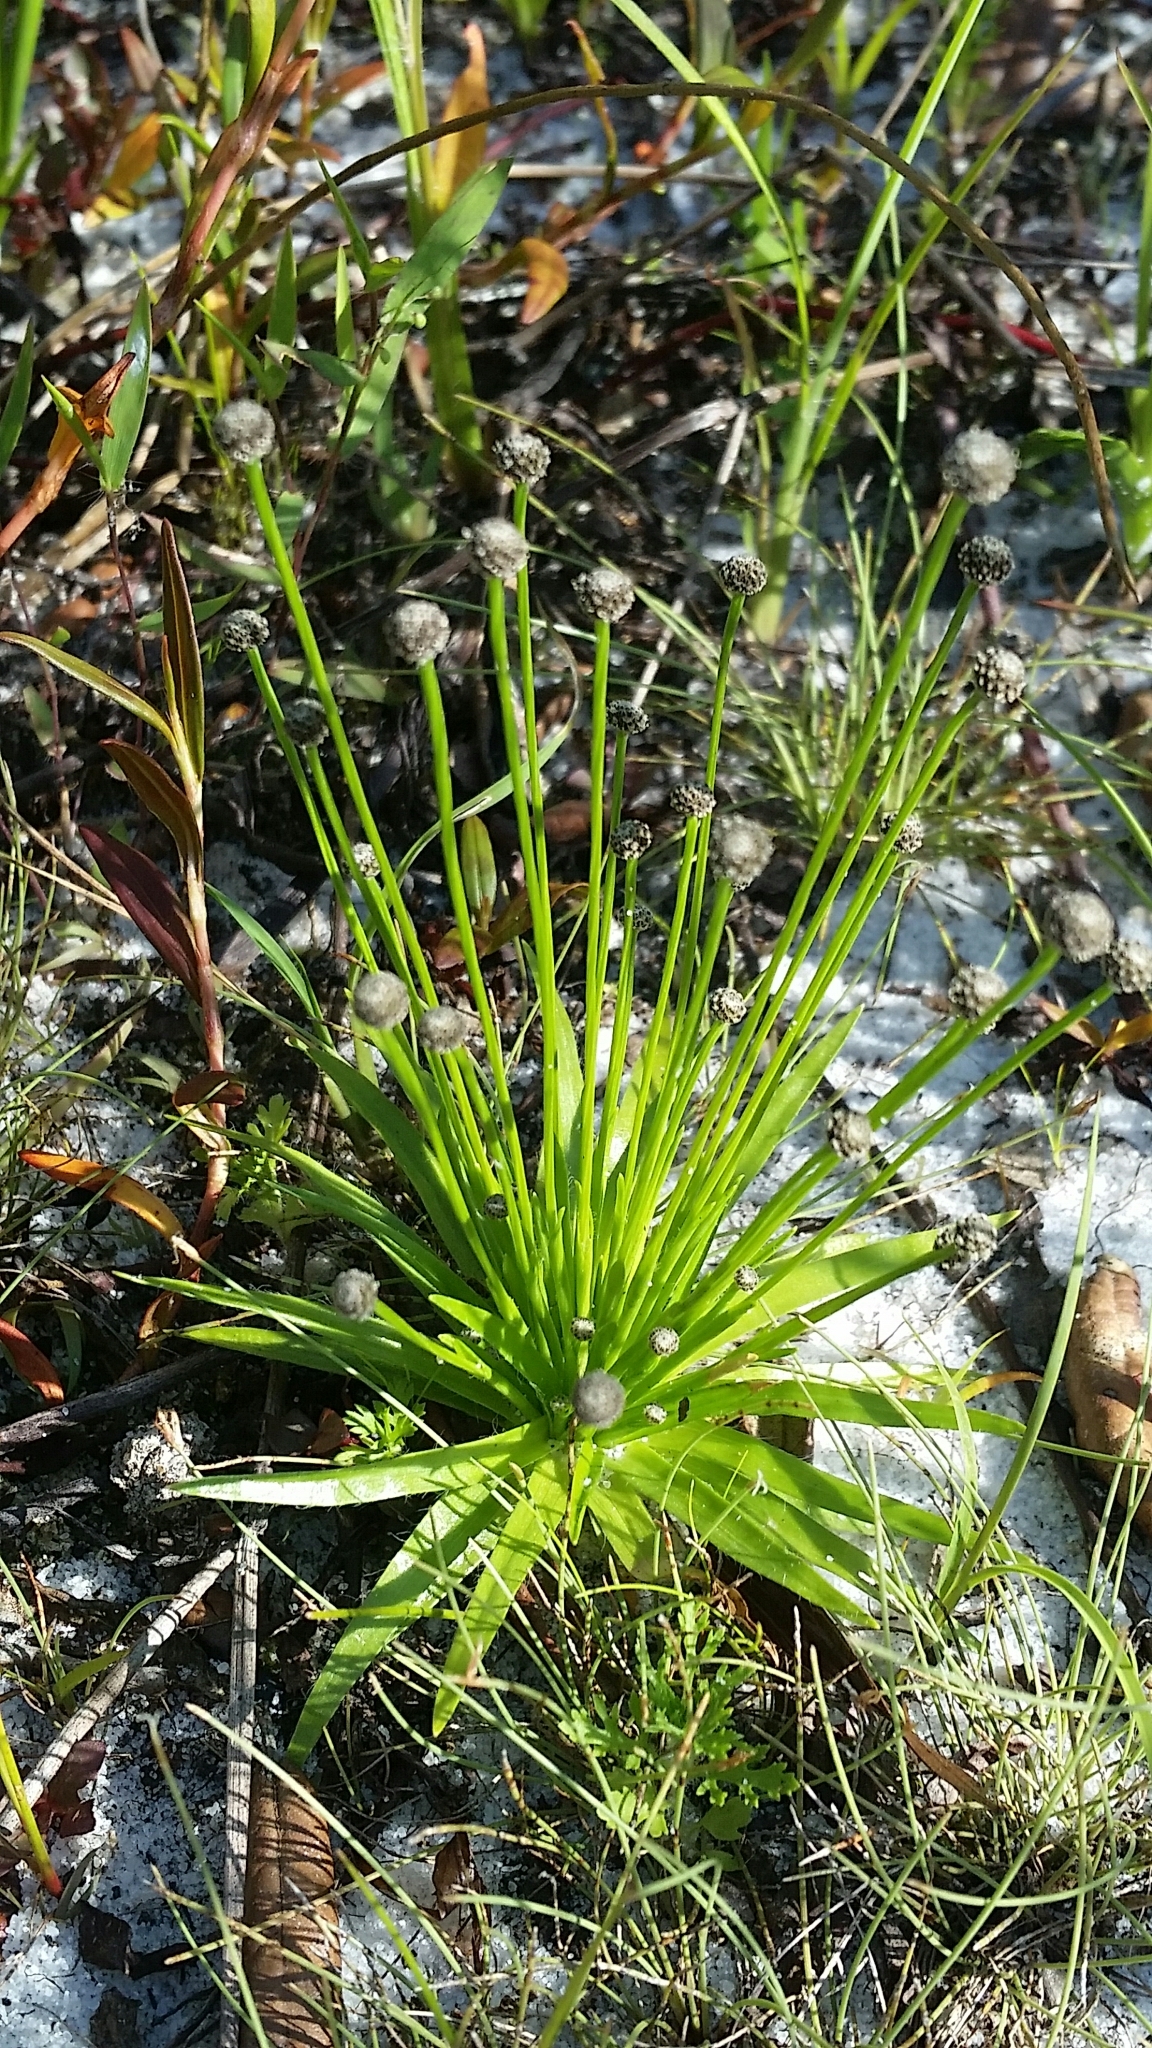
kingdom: Plantae
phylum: Tracheophyta
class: Liliopsida
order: Poales
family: Eriocaulaceae
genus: Paepalanthus
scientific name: Paepalanthus engleri
